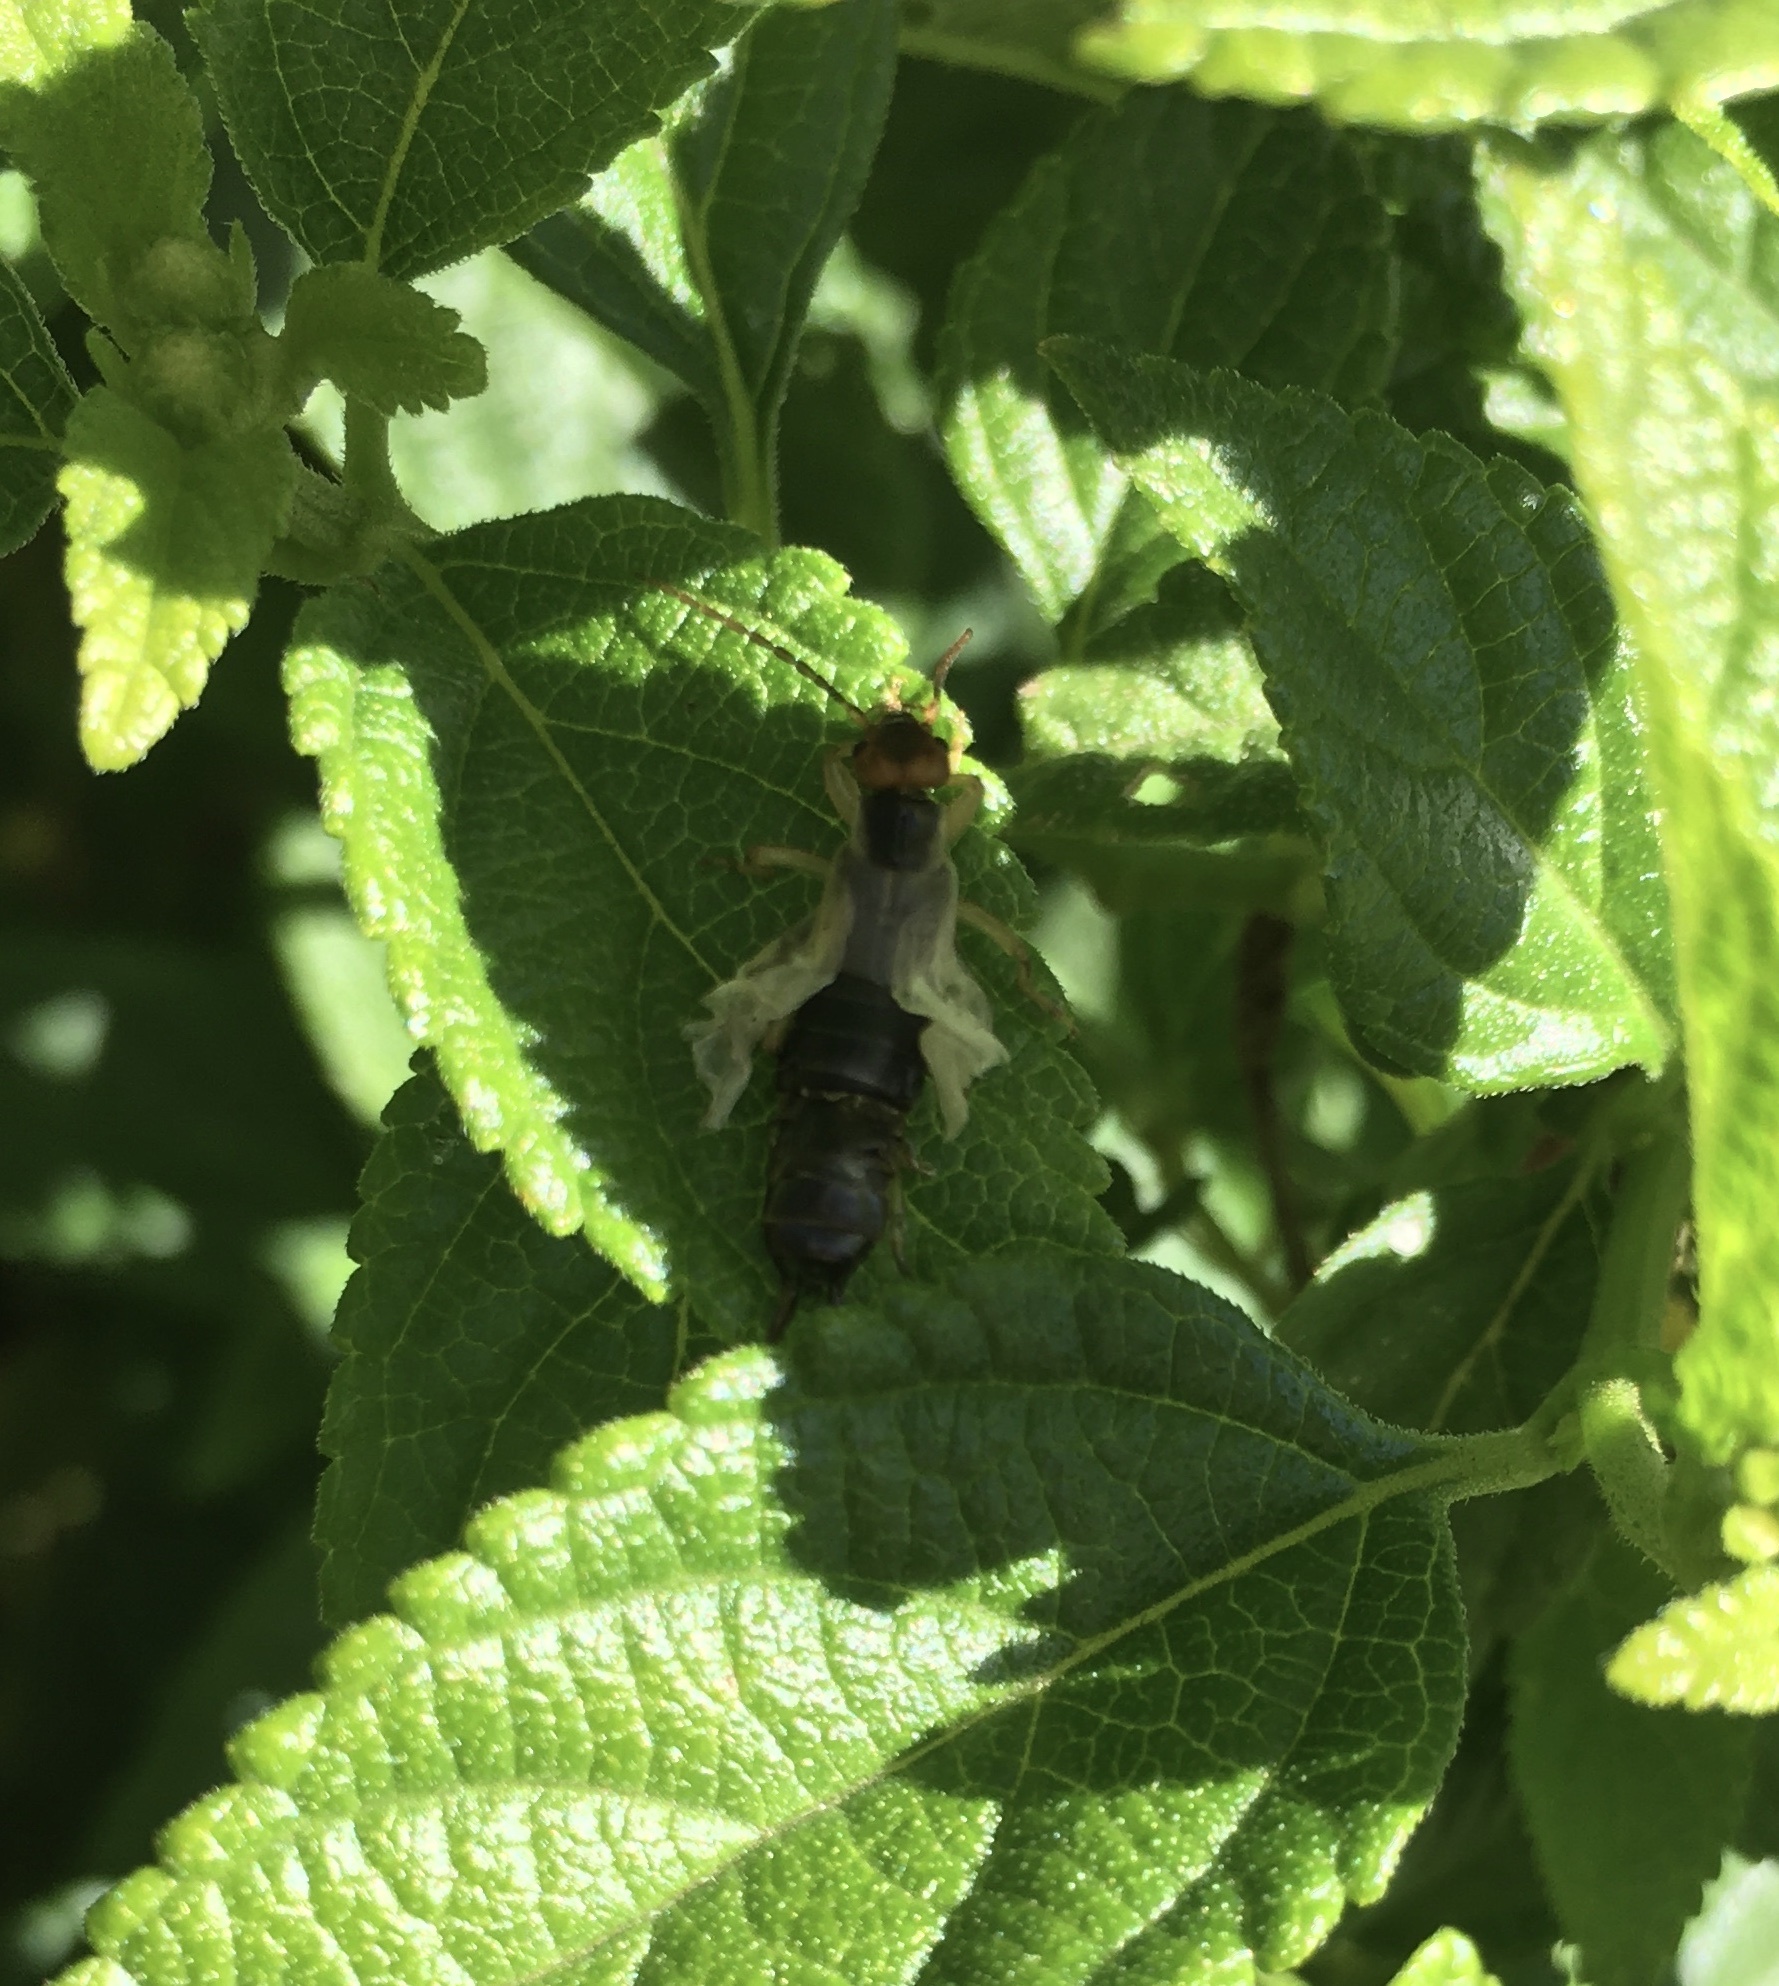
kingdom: Animalia
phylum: Arthropoda
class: Insecta
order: Dermaptera
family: Forficulidae
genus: Forficula
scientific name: Forficula
